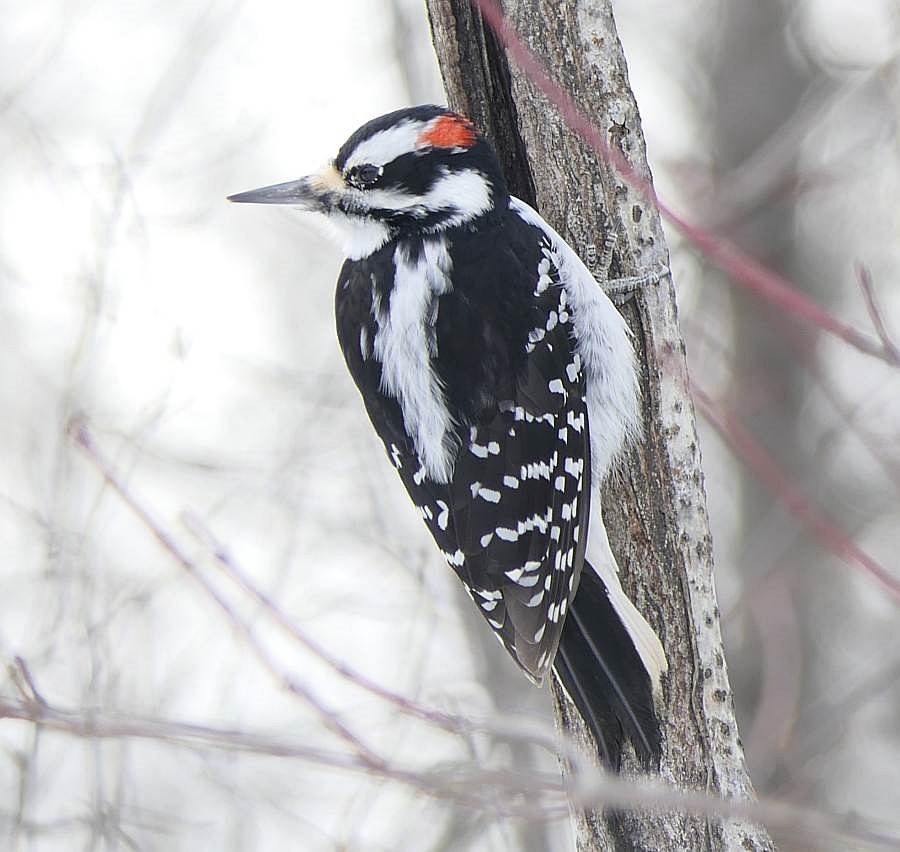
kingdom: Animalia
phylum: Chordata
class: Aves
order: Piciformes
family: Picidae
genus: Leuconotopicus
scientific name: Leuconotopicus villosus
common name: Hairy woodpecker
